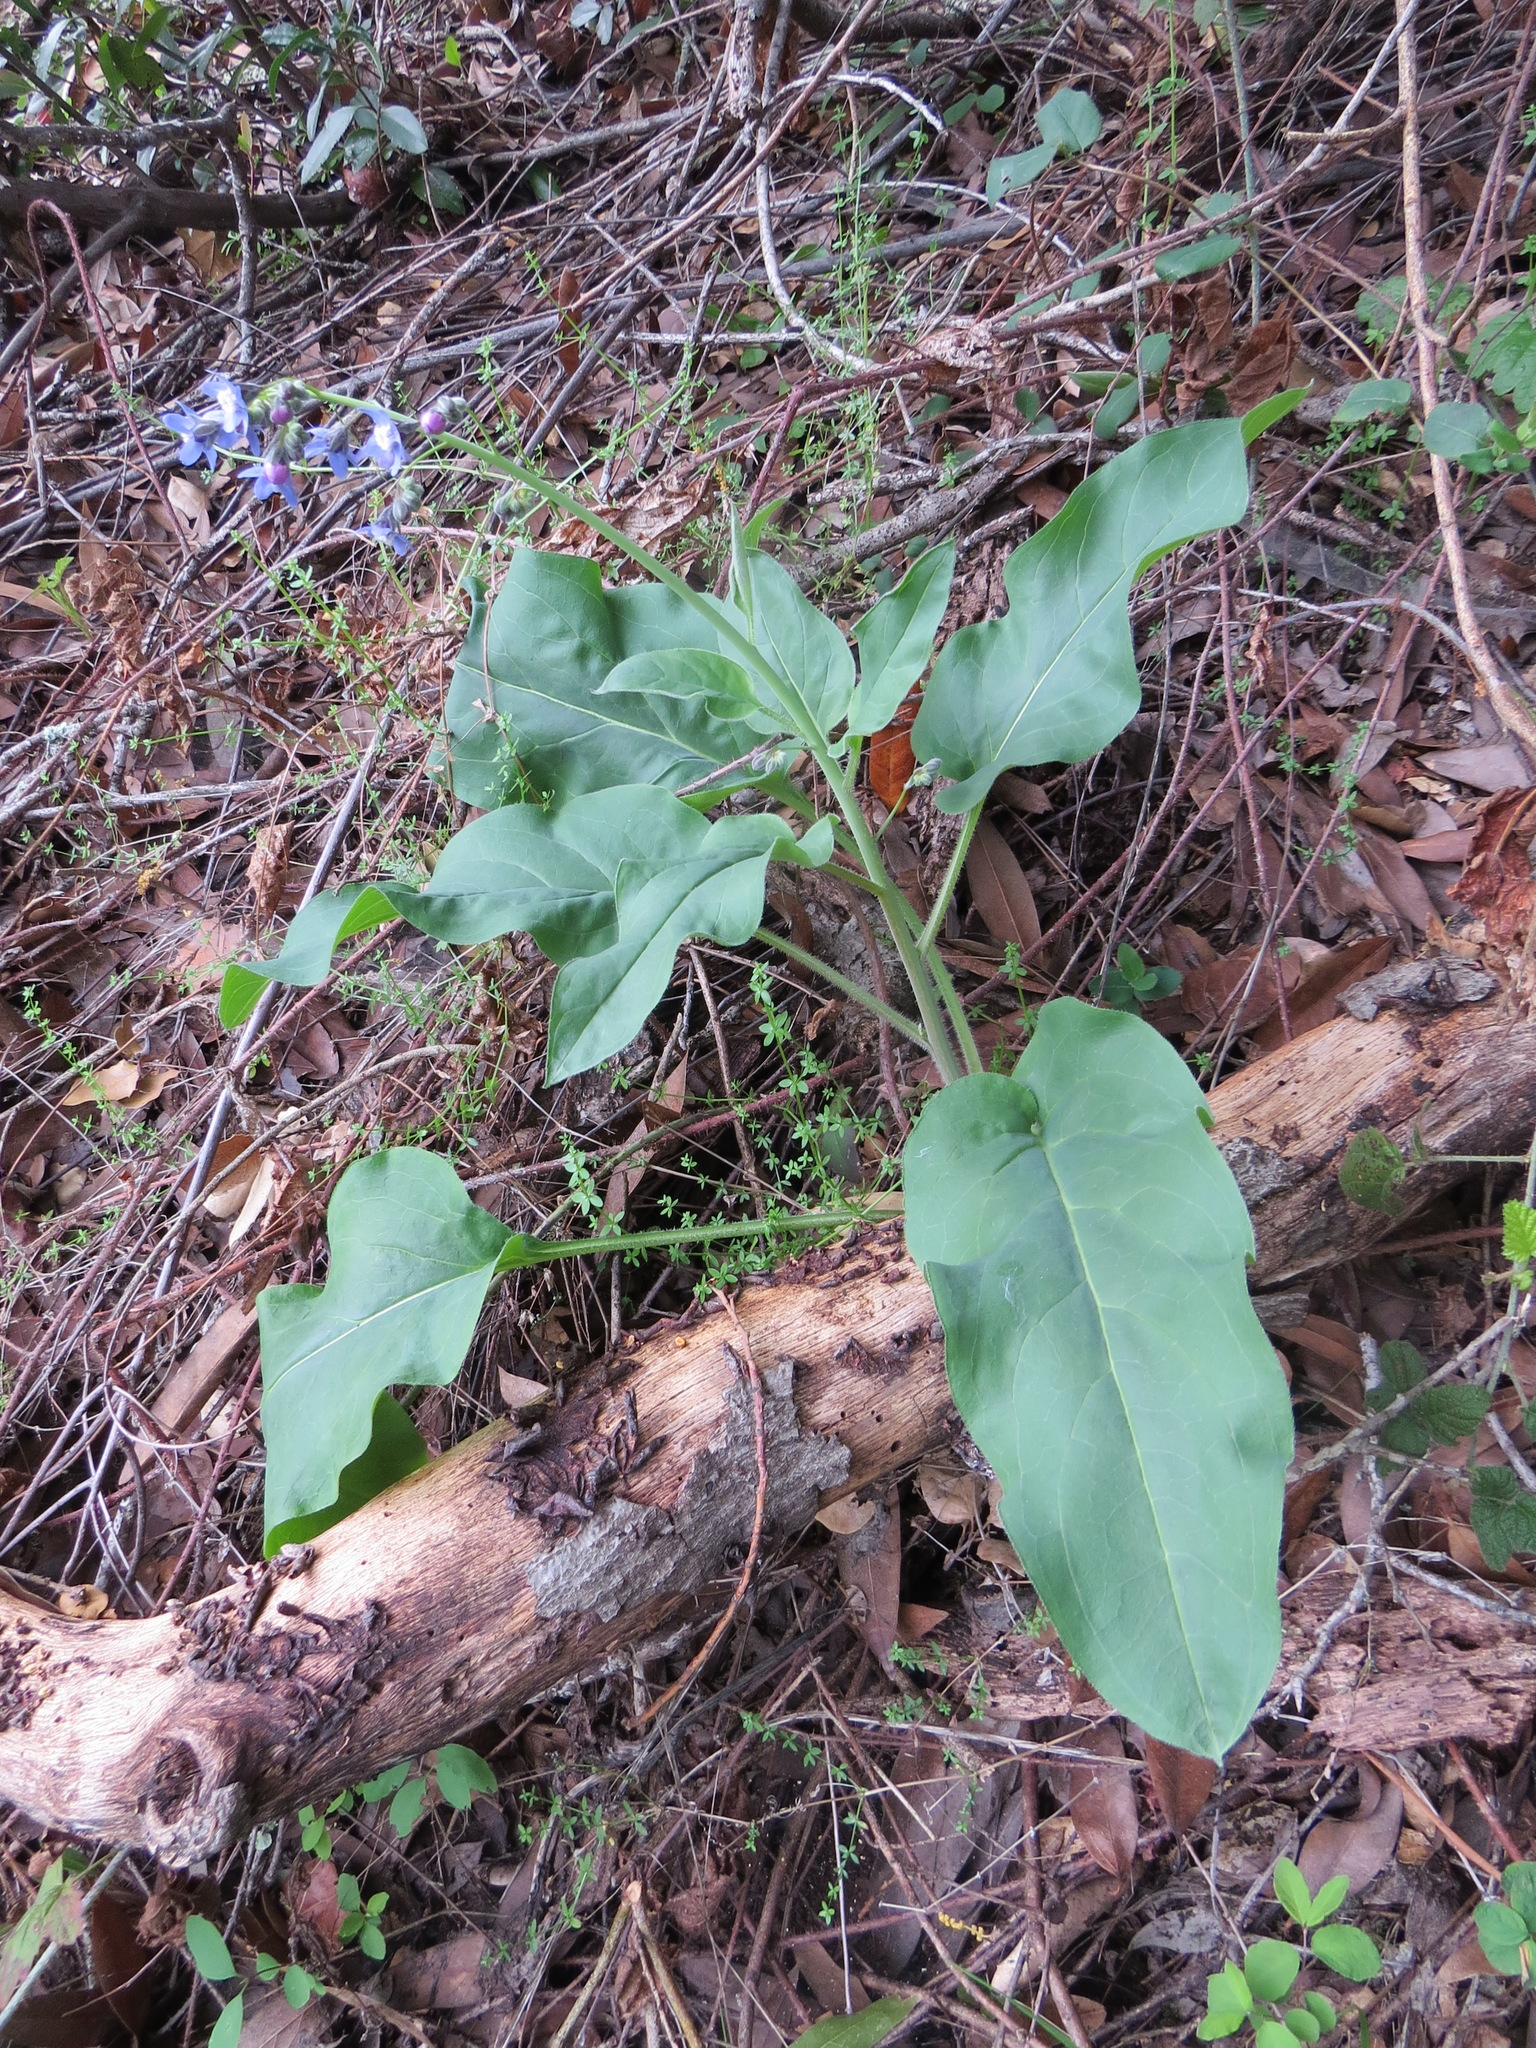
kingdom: Plantae
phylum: Tracheophyta
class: Magnoliopsida
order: Boraginales
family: Boraginaceae
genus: Adelinia
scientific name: Adelinia grande
